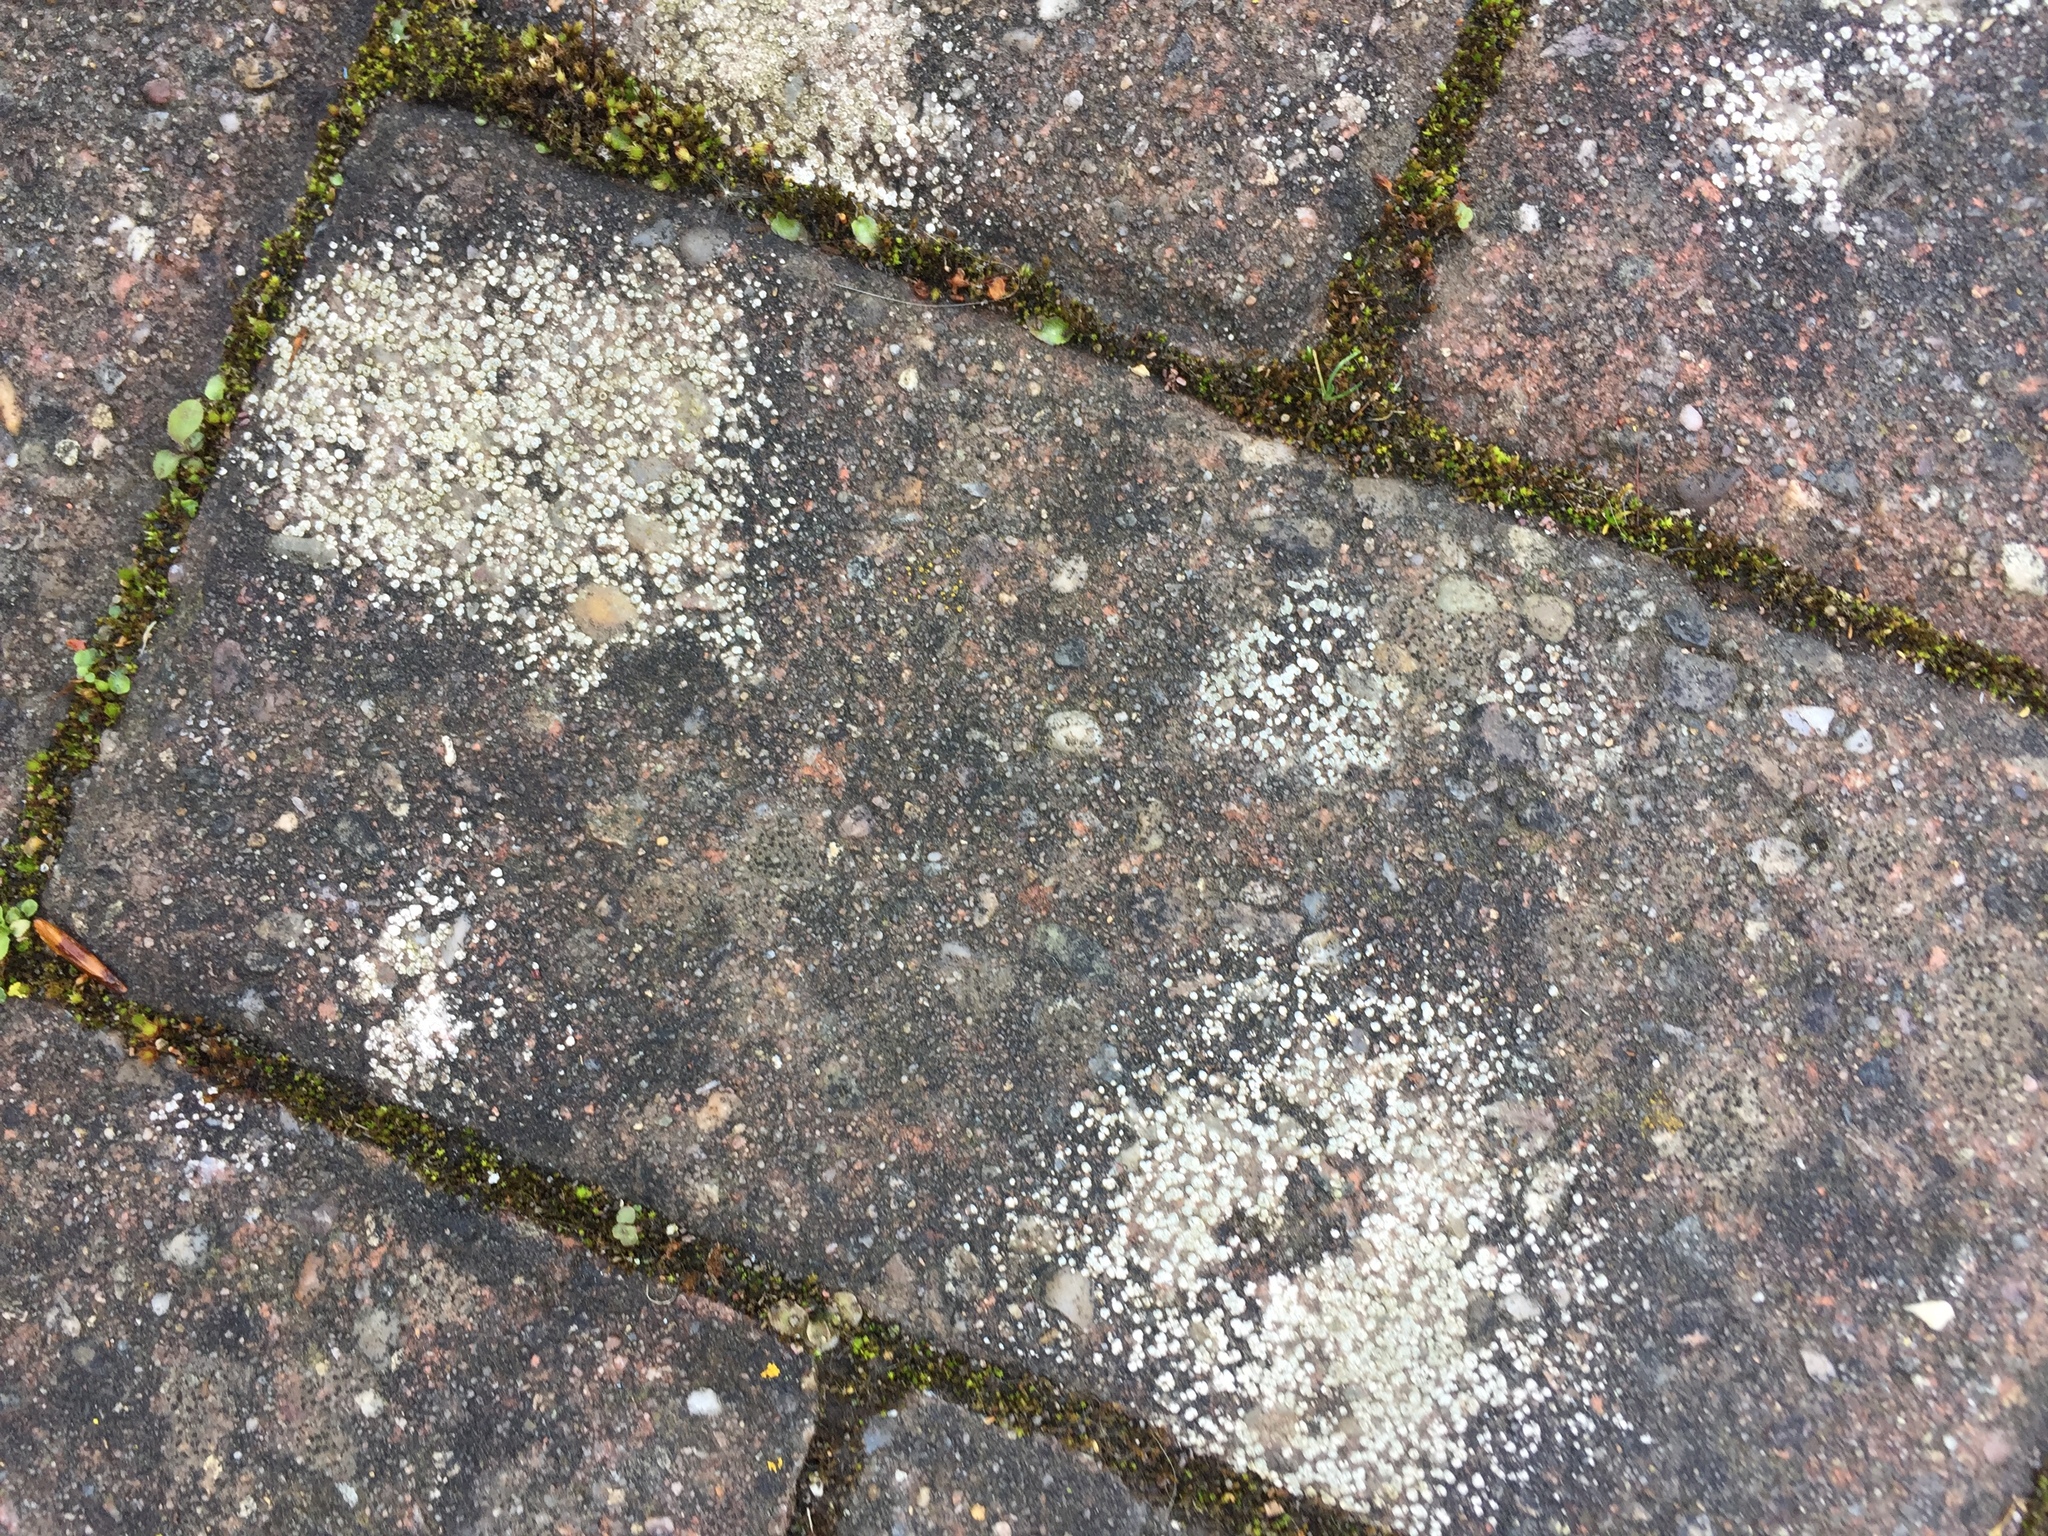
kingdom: Fungi
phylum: Ascomycota
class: Lecanoromycetes
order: Pertusariales
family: Megasporaceae
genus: Circinaria
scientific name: Circinaria contorta
